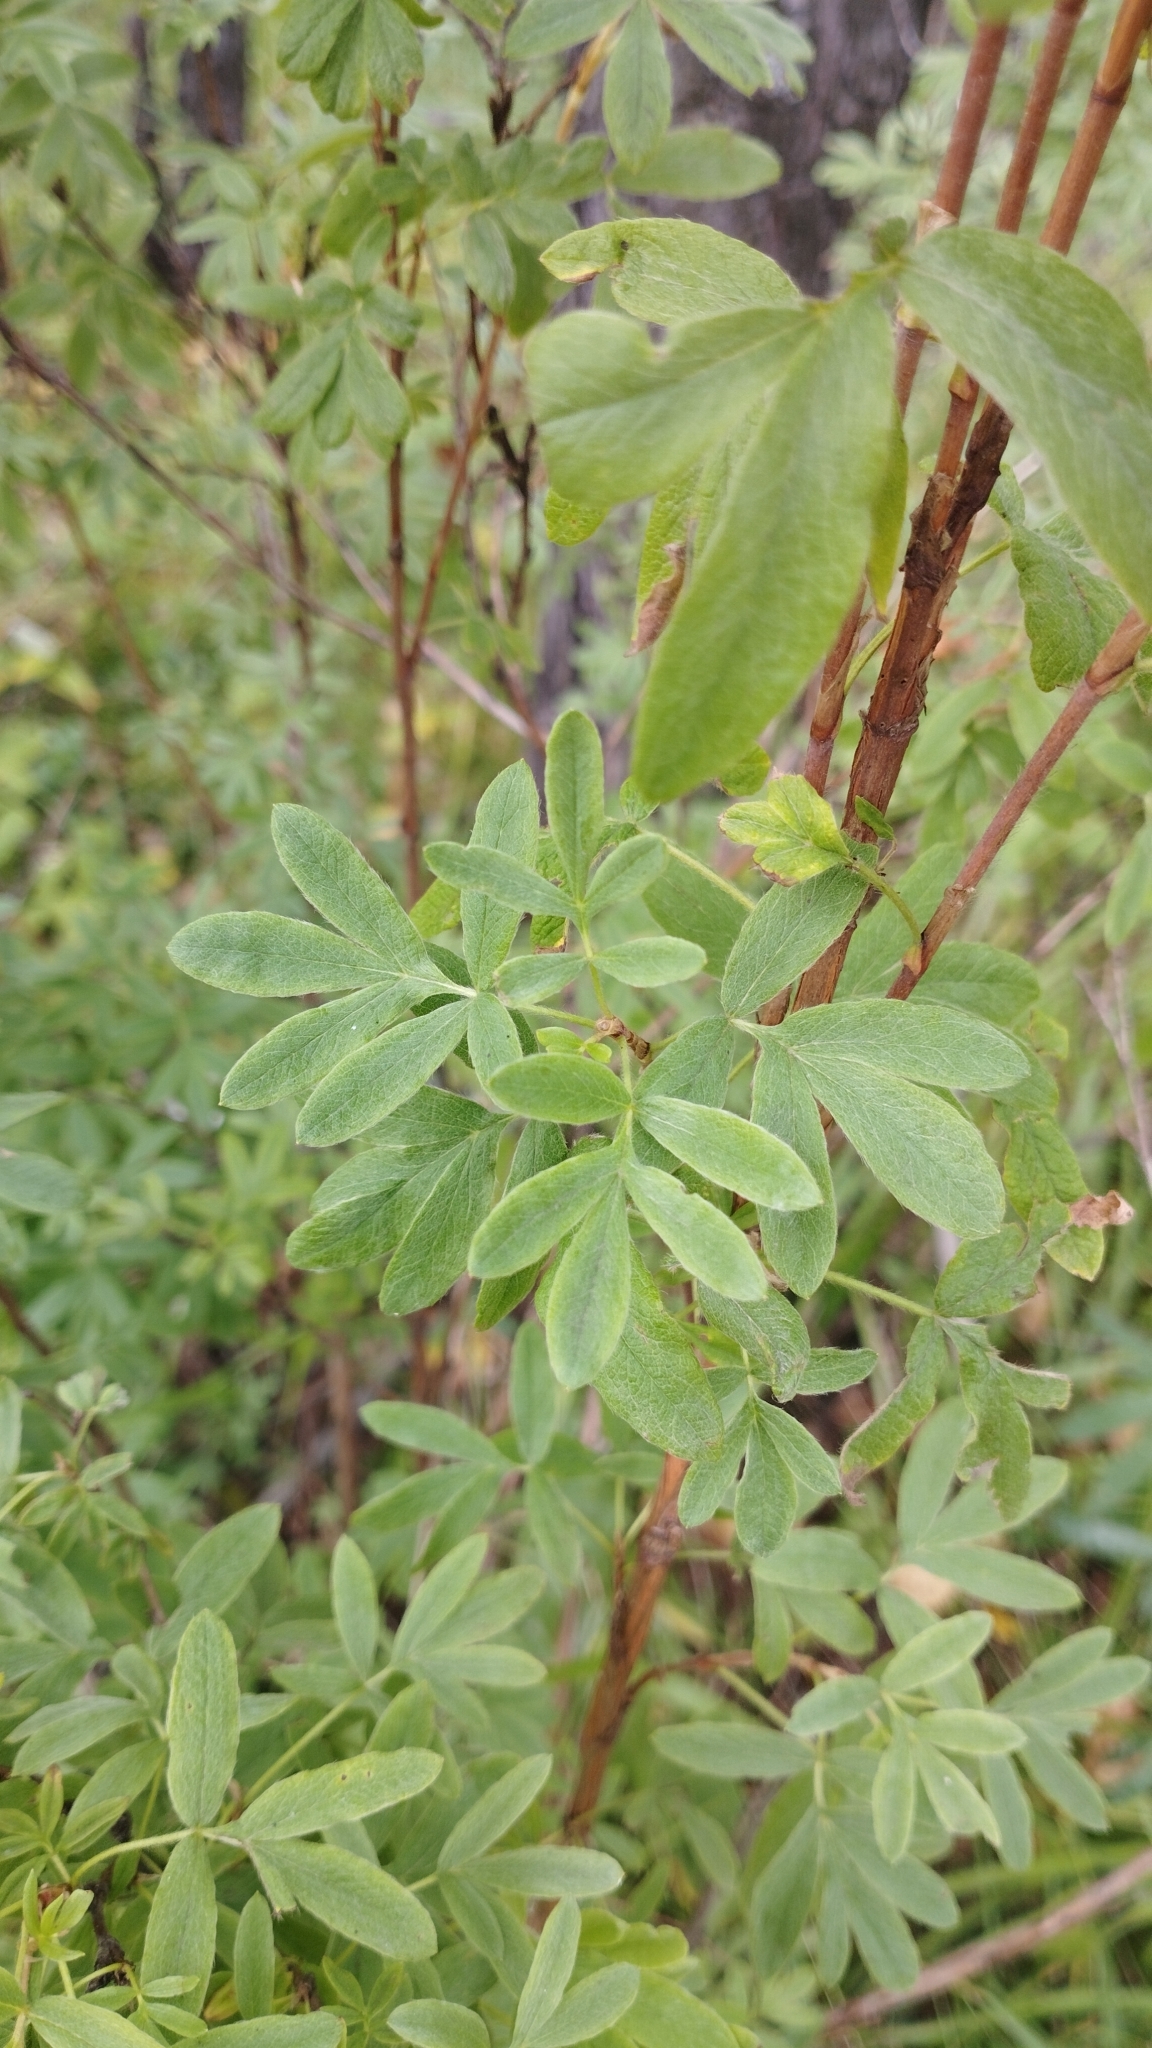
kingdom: Plantae
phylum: Tracheophyta
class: Magnoliopsida
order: Rosales
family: Rosaceae
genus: Dasiphora
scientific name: Dasiphora fruticosa
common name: Shrubby cinquefoil
